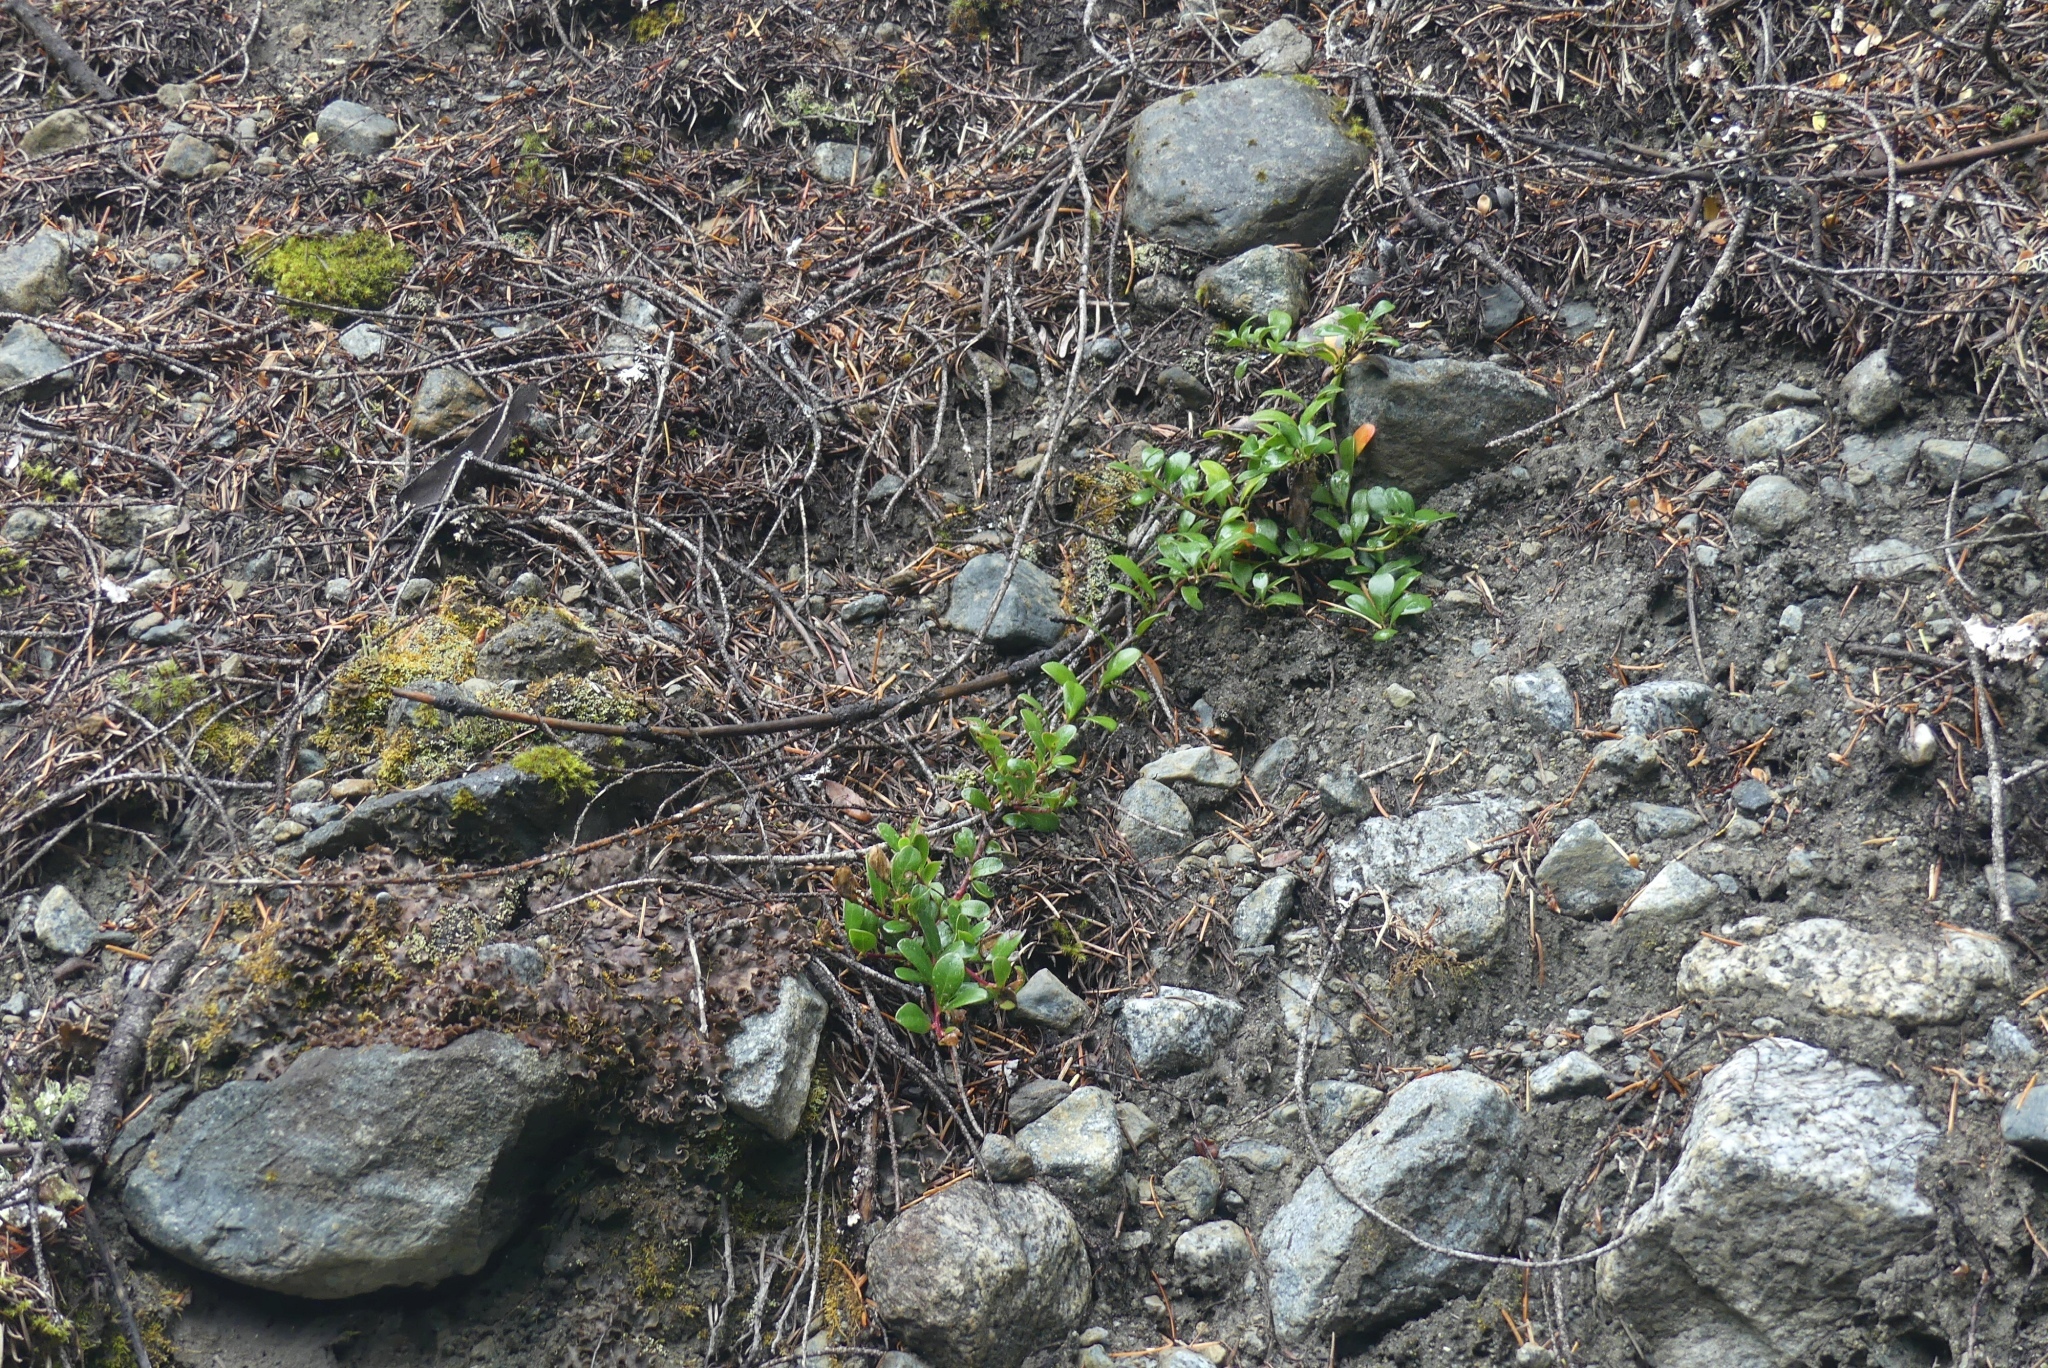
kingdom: Plantae
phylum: Tracheophyta
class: Magnoliopsida
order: Ericales
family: Ericaceae
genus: Arctostaphylos
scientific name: Arctostaphylos uva-ursi
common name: Bearberry
